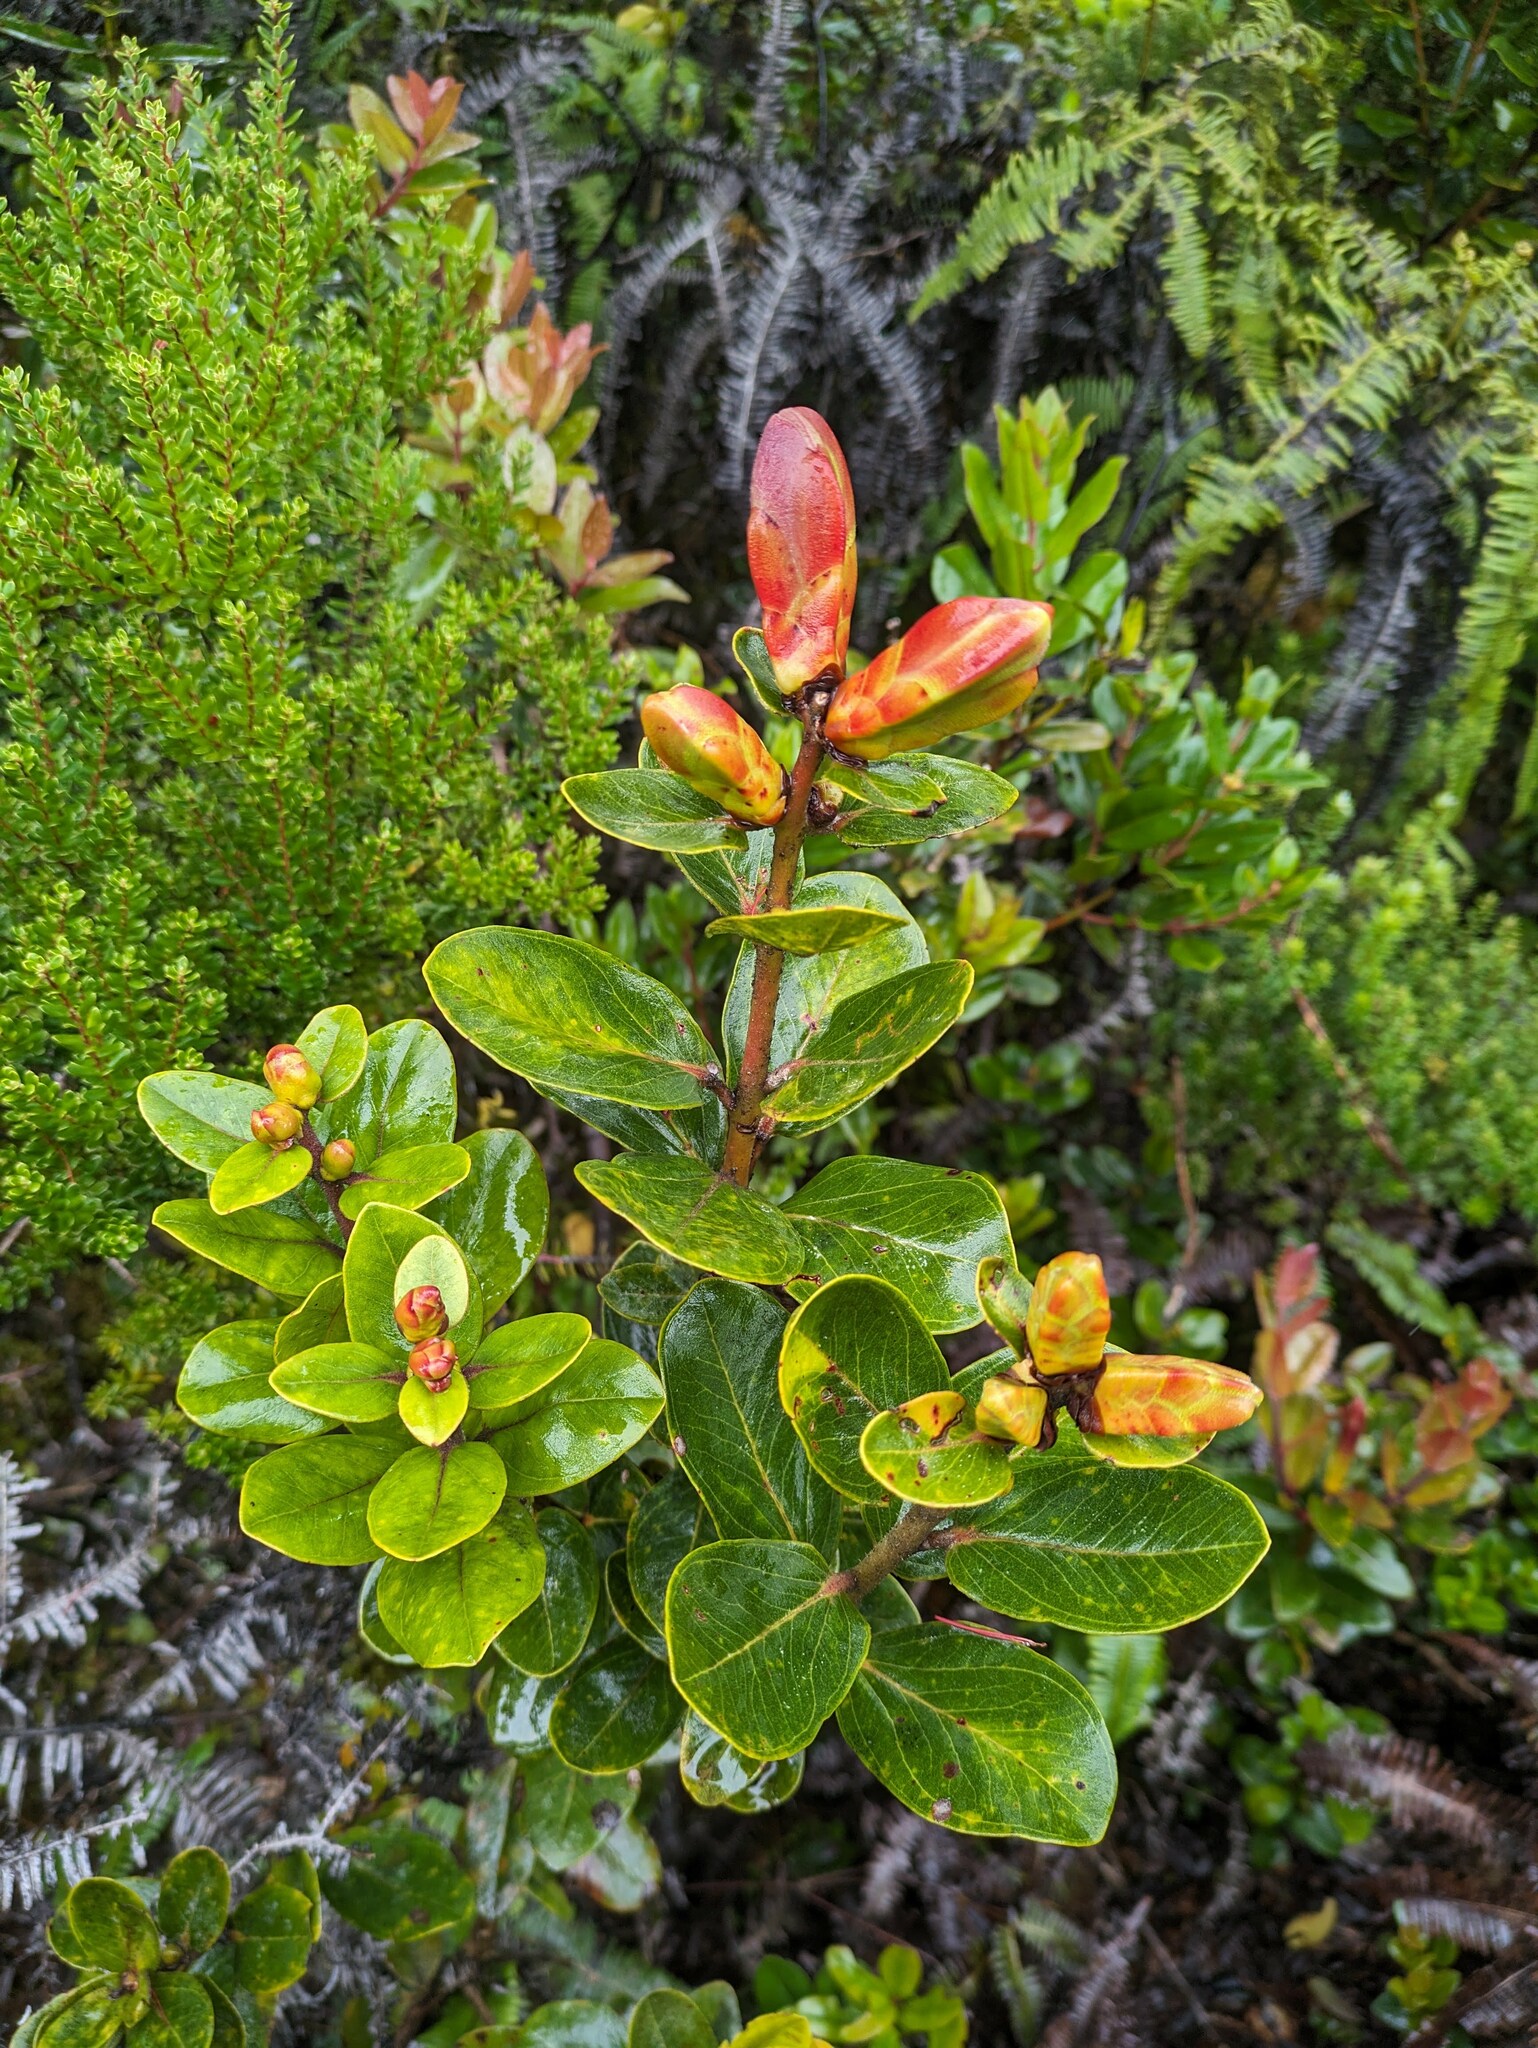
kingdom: Plantae
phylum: Tracheophyta
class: Magnoliopsida
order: Myrtales
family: Myrtaceae
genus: Metrosideros
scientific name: Metrosideros polymorpha
